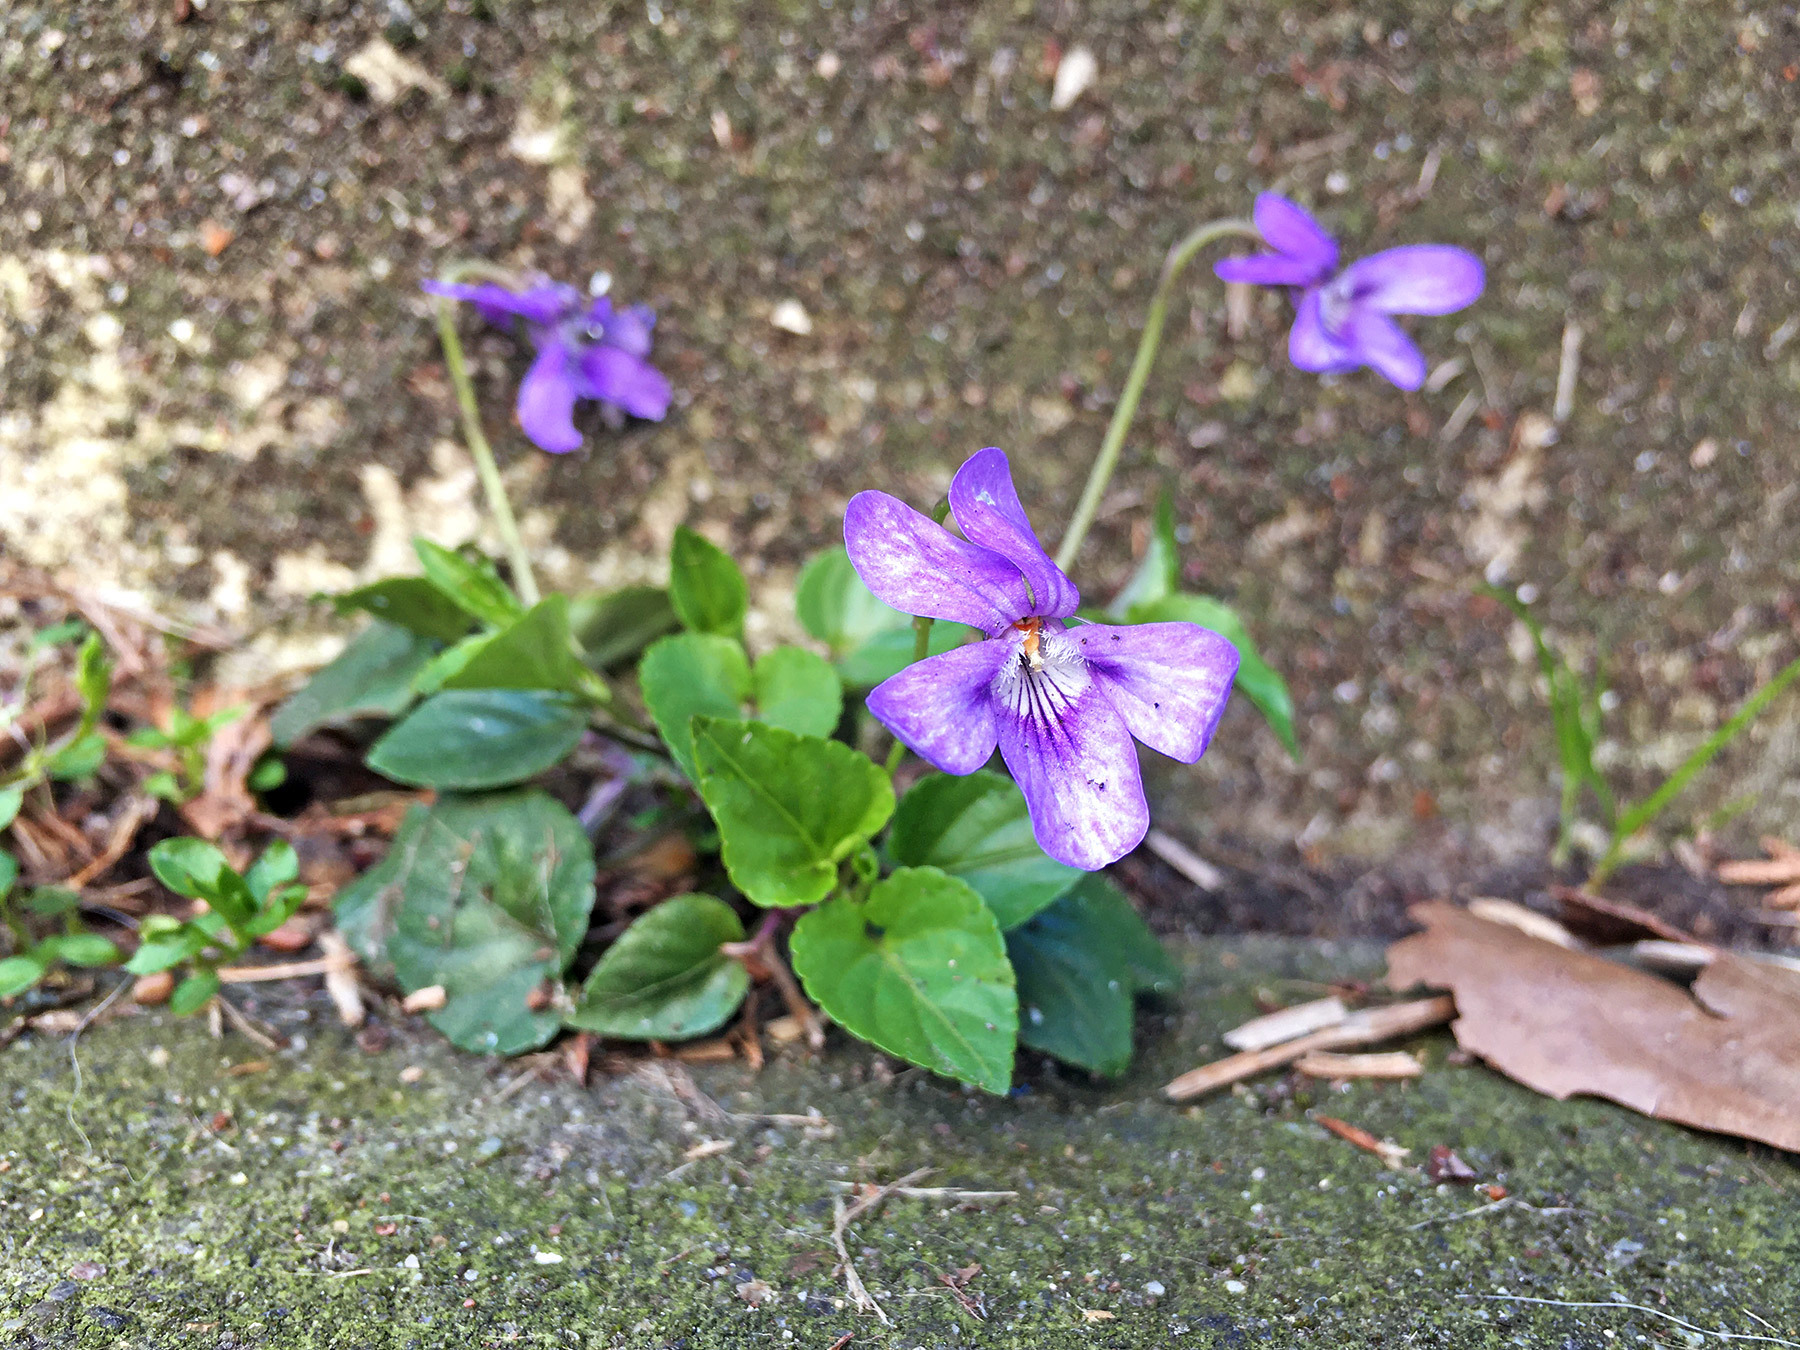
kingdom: Plantae
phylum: Tracheophyta
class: Magnoliopsida
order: Malpighiales
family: Violaceae
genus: Viola
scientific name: Viola reichenbachiana
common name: Early dog-violet
